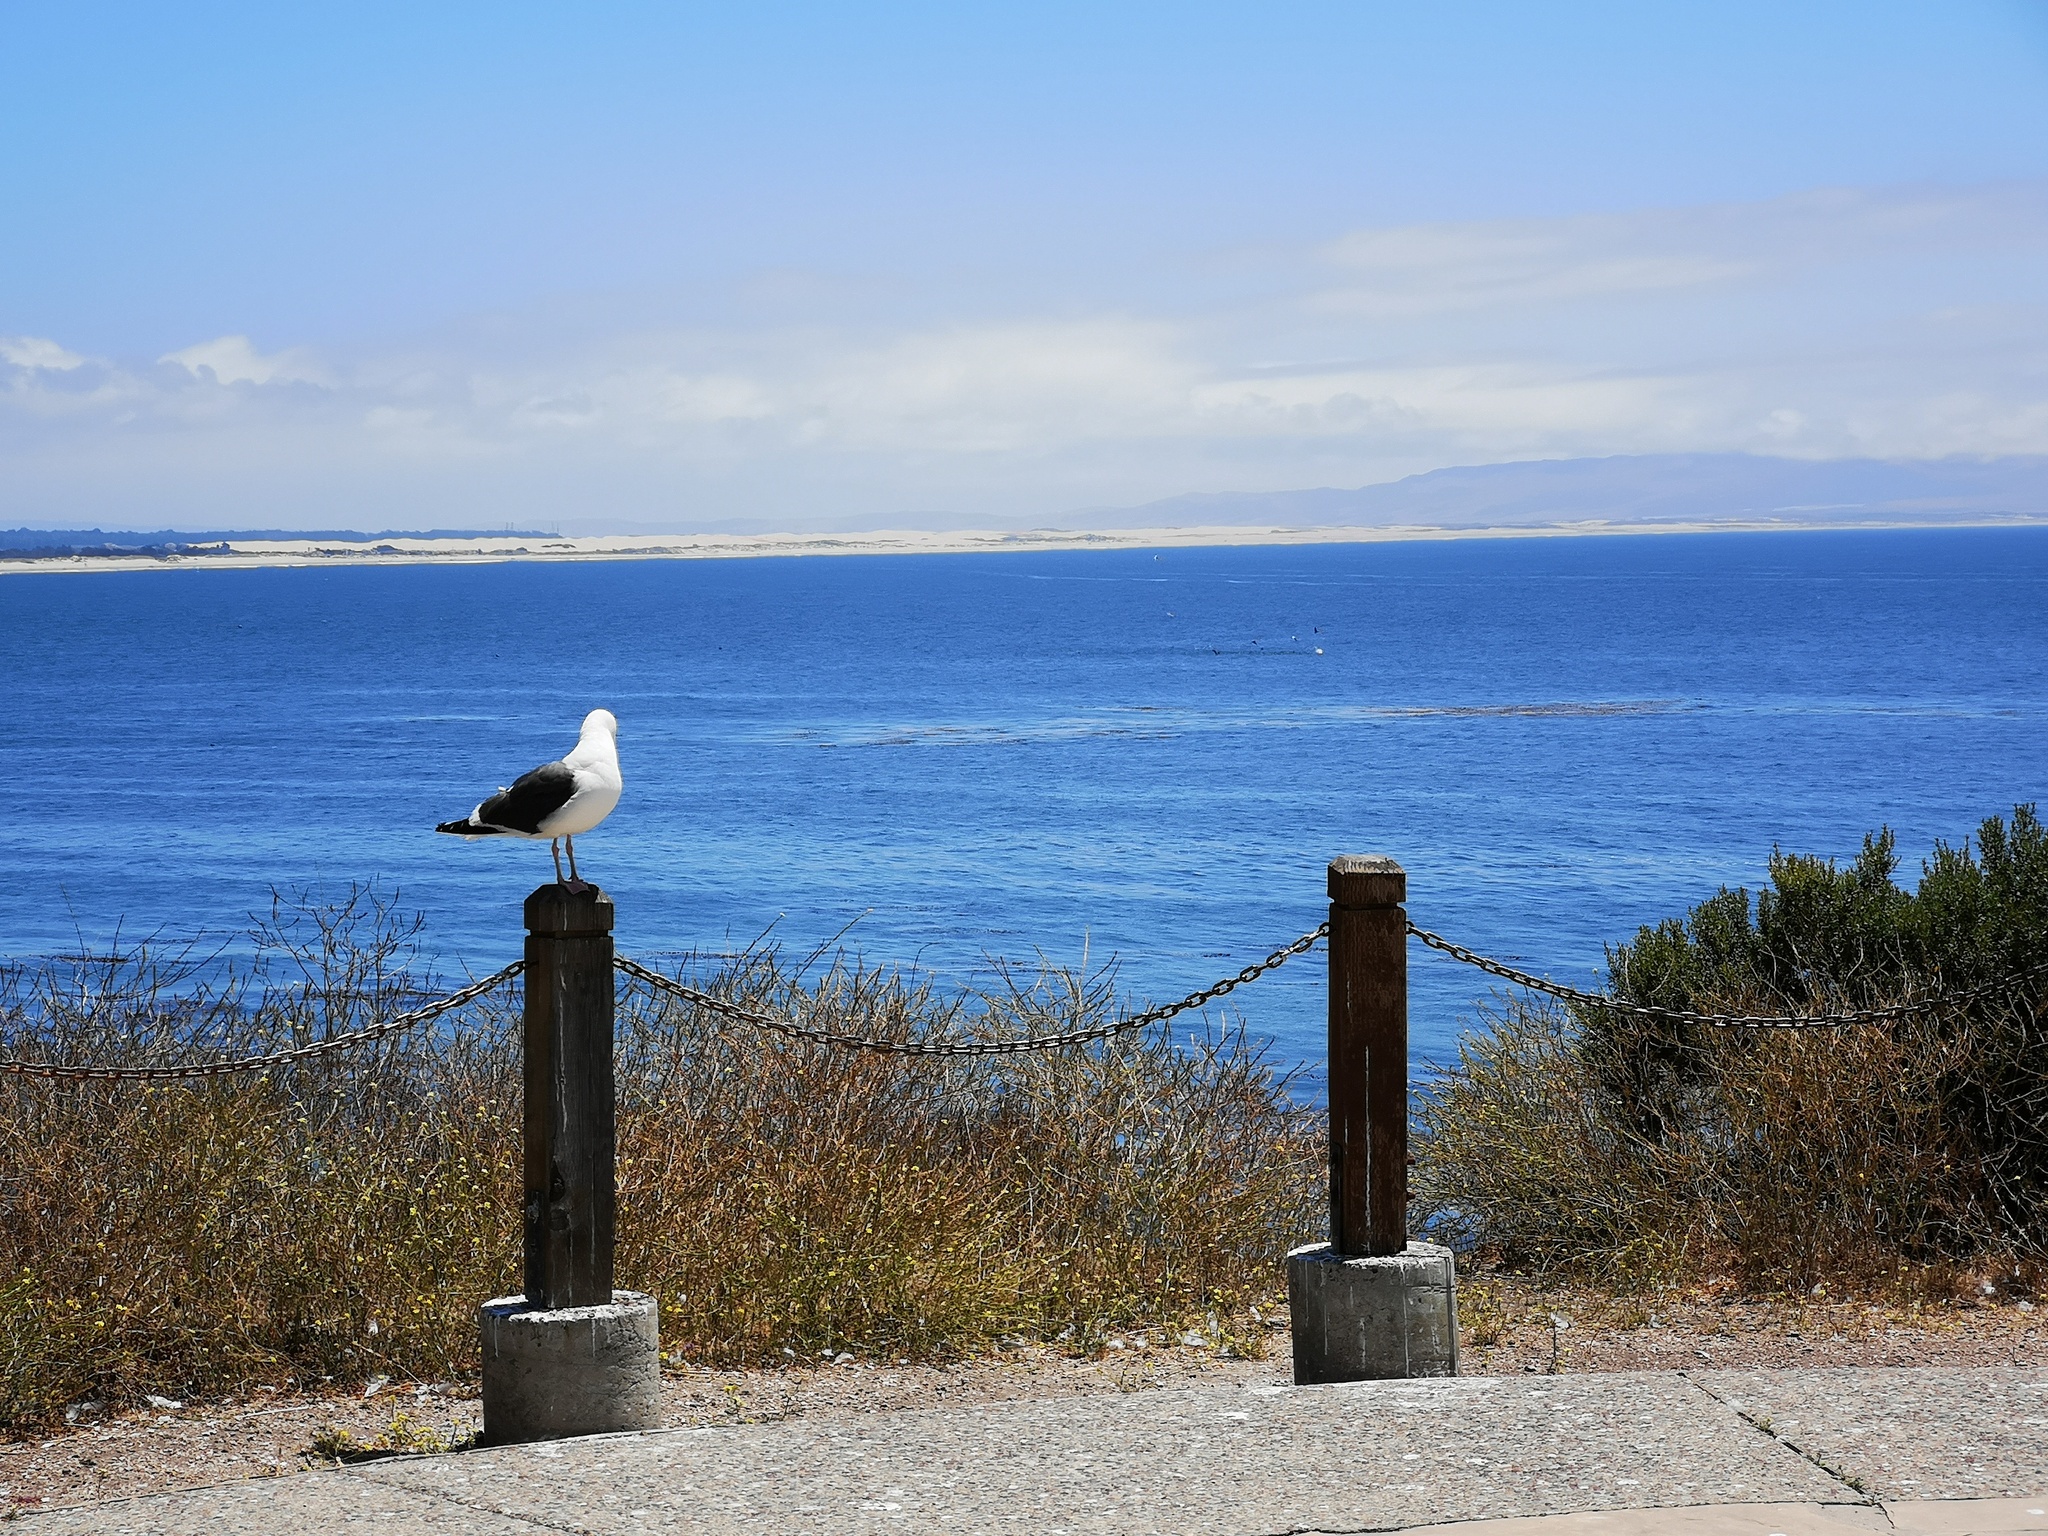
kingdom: Animalia
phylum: Chordata
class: Aves
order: Charadriiformes
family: Laridae
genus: Larus
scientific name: Larus occidentalis
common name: Western gull
